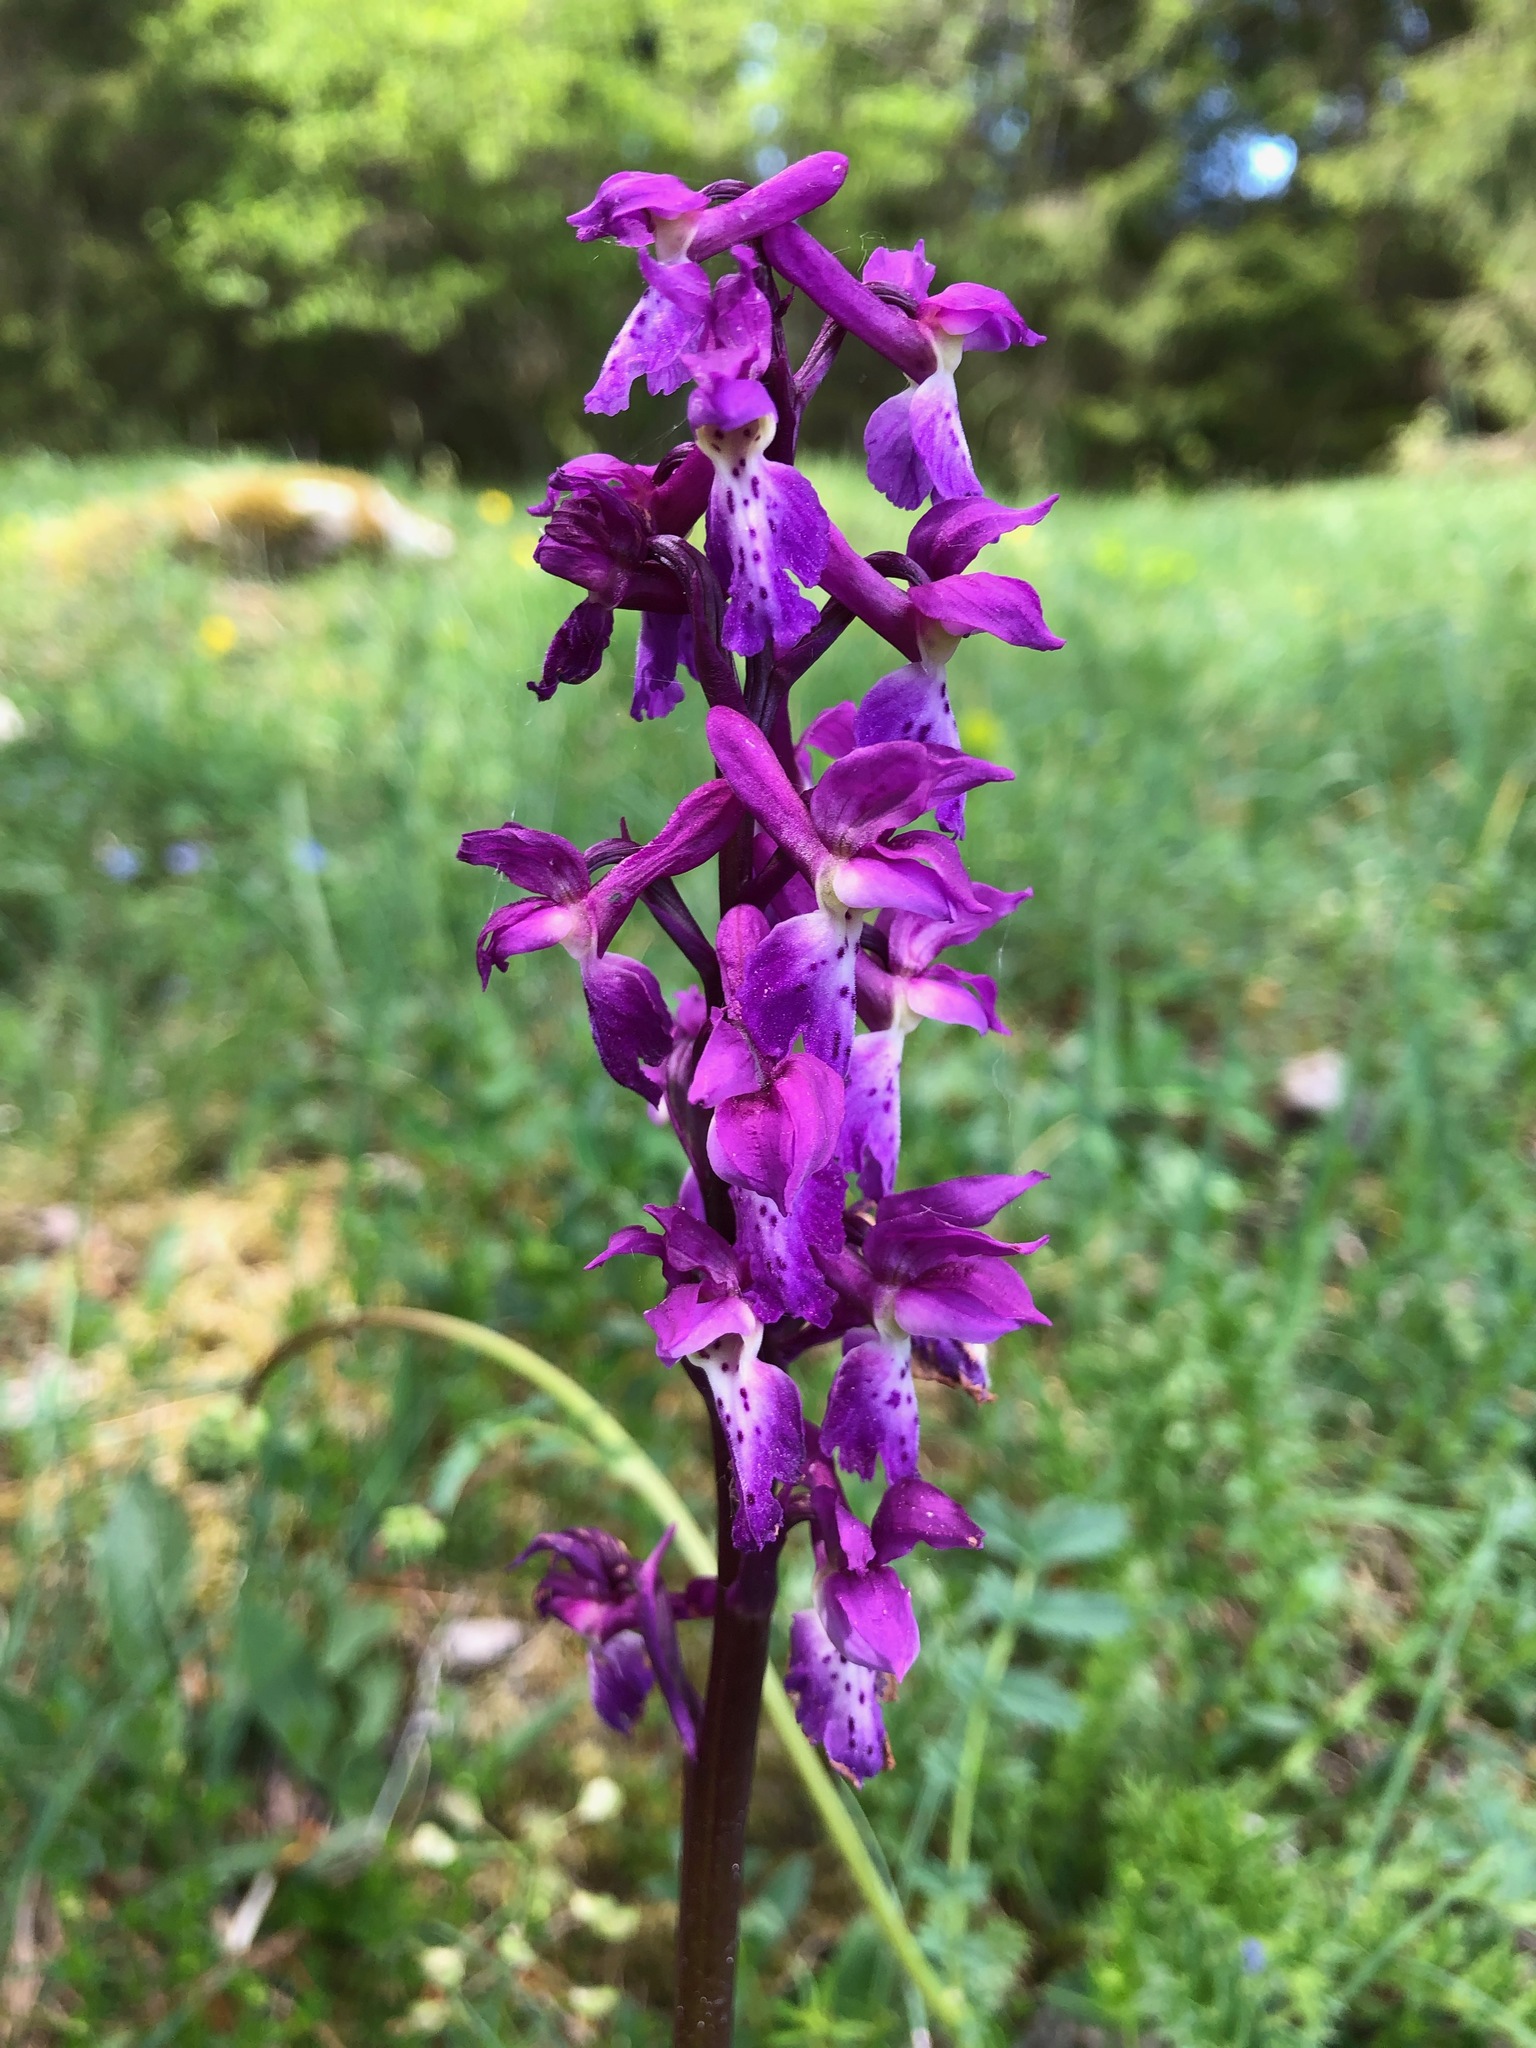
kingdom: Plantae
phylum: Tracheophyta
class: Liliopsida
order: Asparagales
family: Orchidaceae
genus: Orchis
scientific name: Orchis mascula
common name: Early-purple orchid
